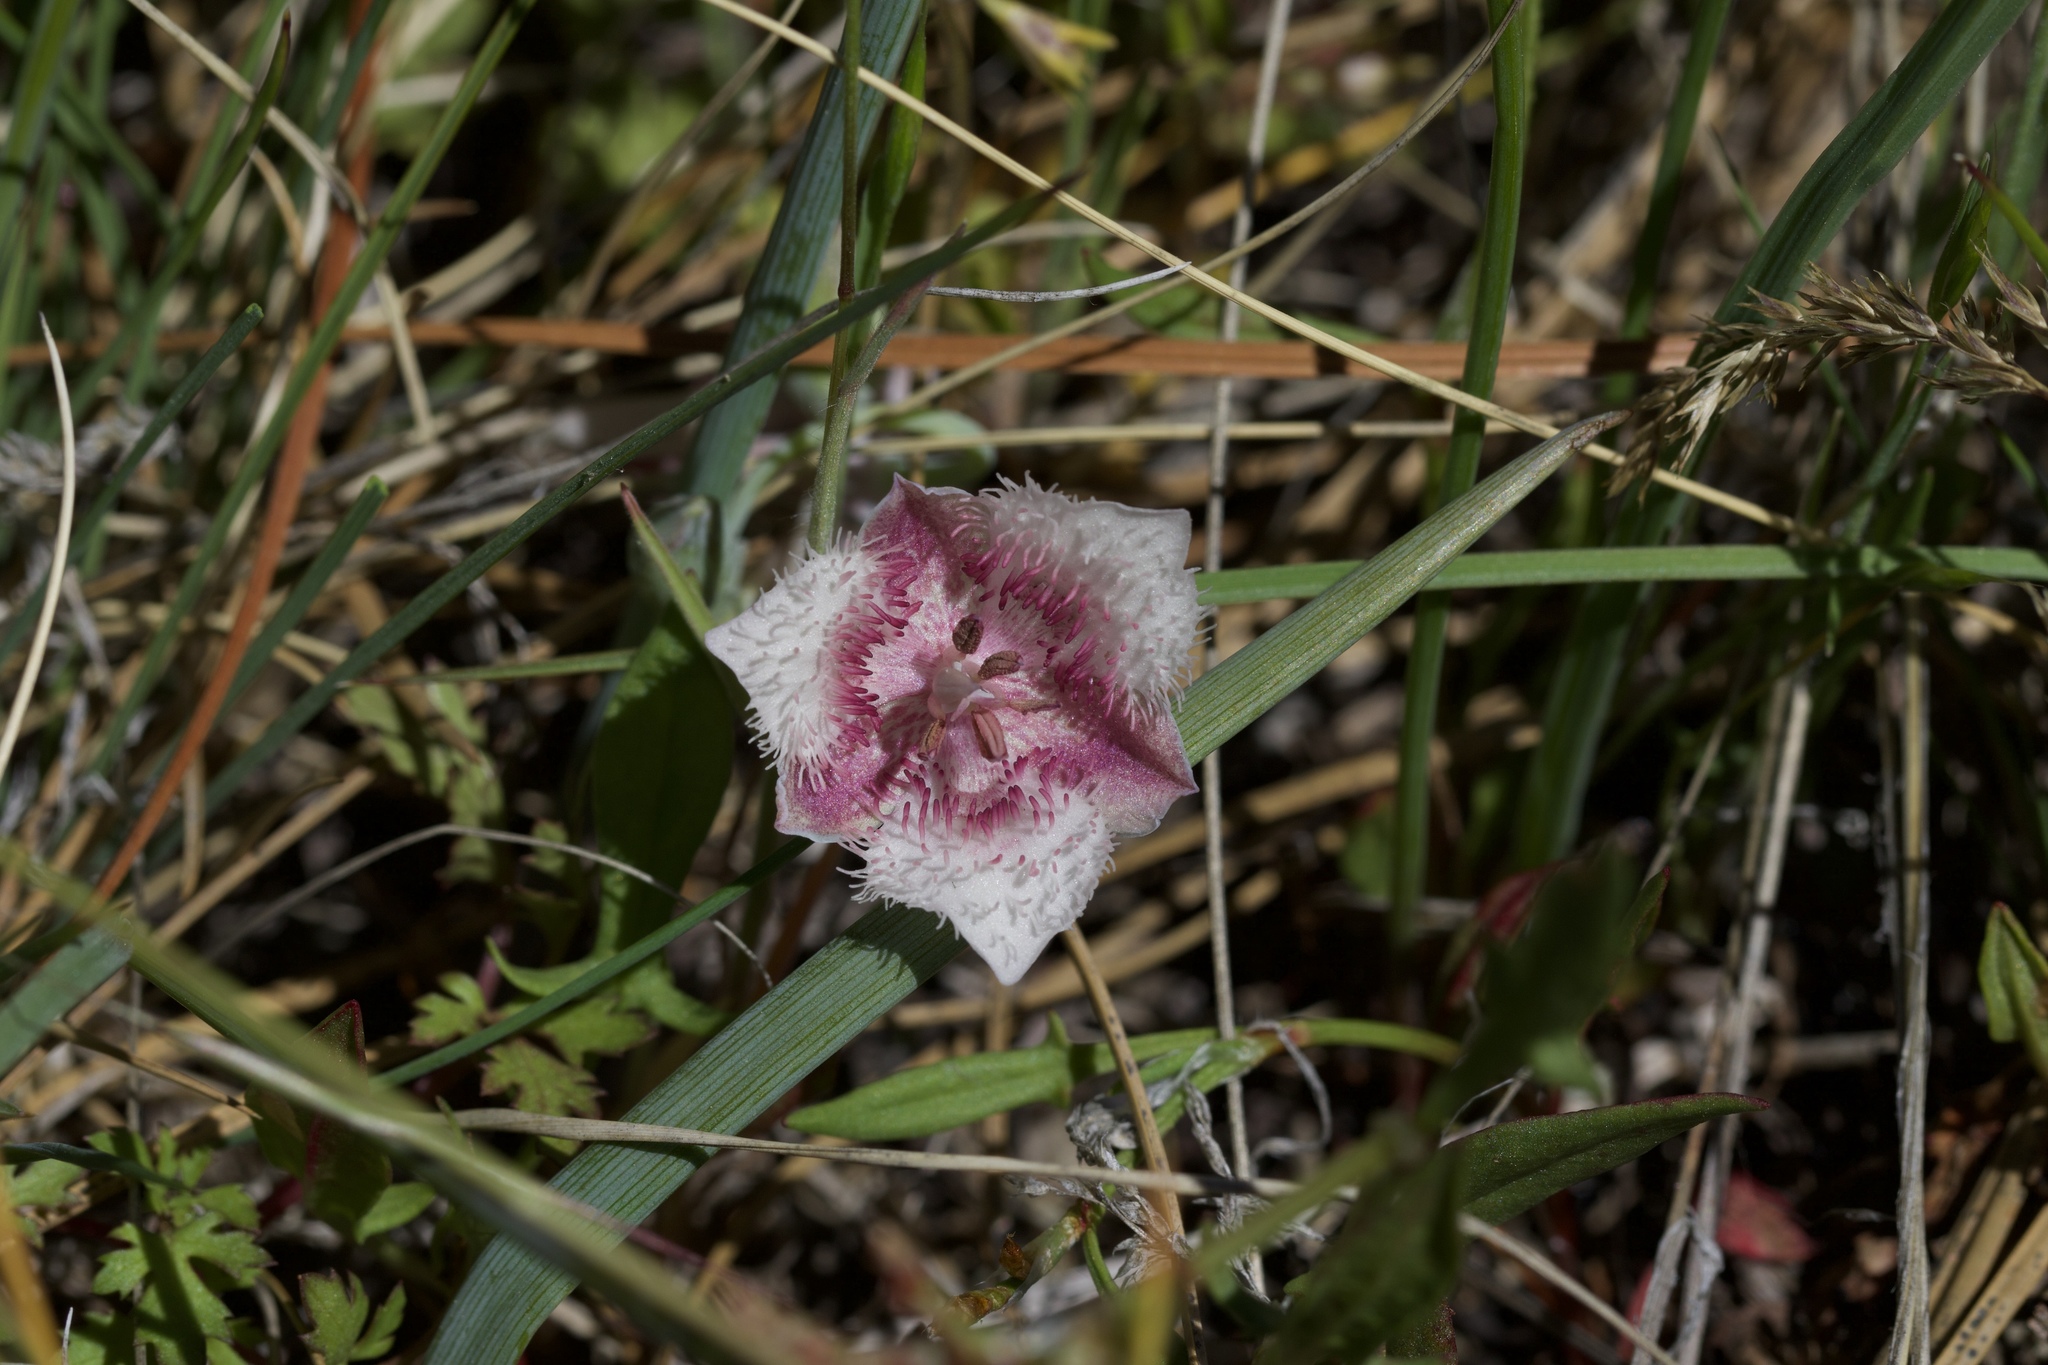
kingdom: Plantae
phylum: Tracheophyta
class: Liliopsida
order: Liliales
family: Liliaceae
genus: Calochortus
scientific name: Calochortus coeruleus
